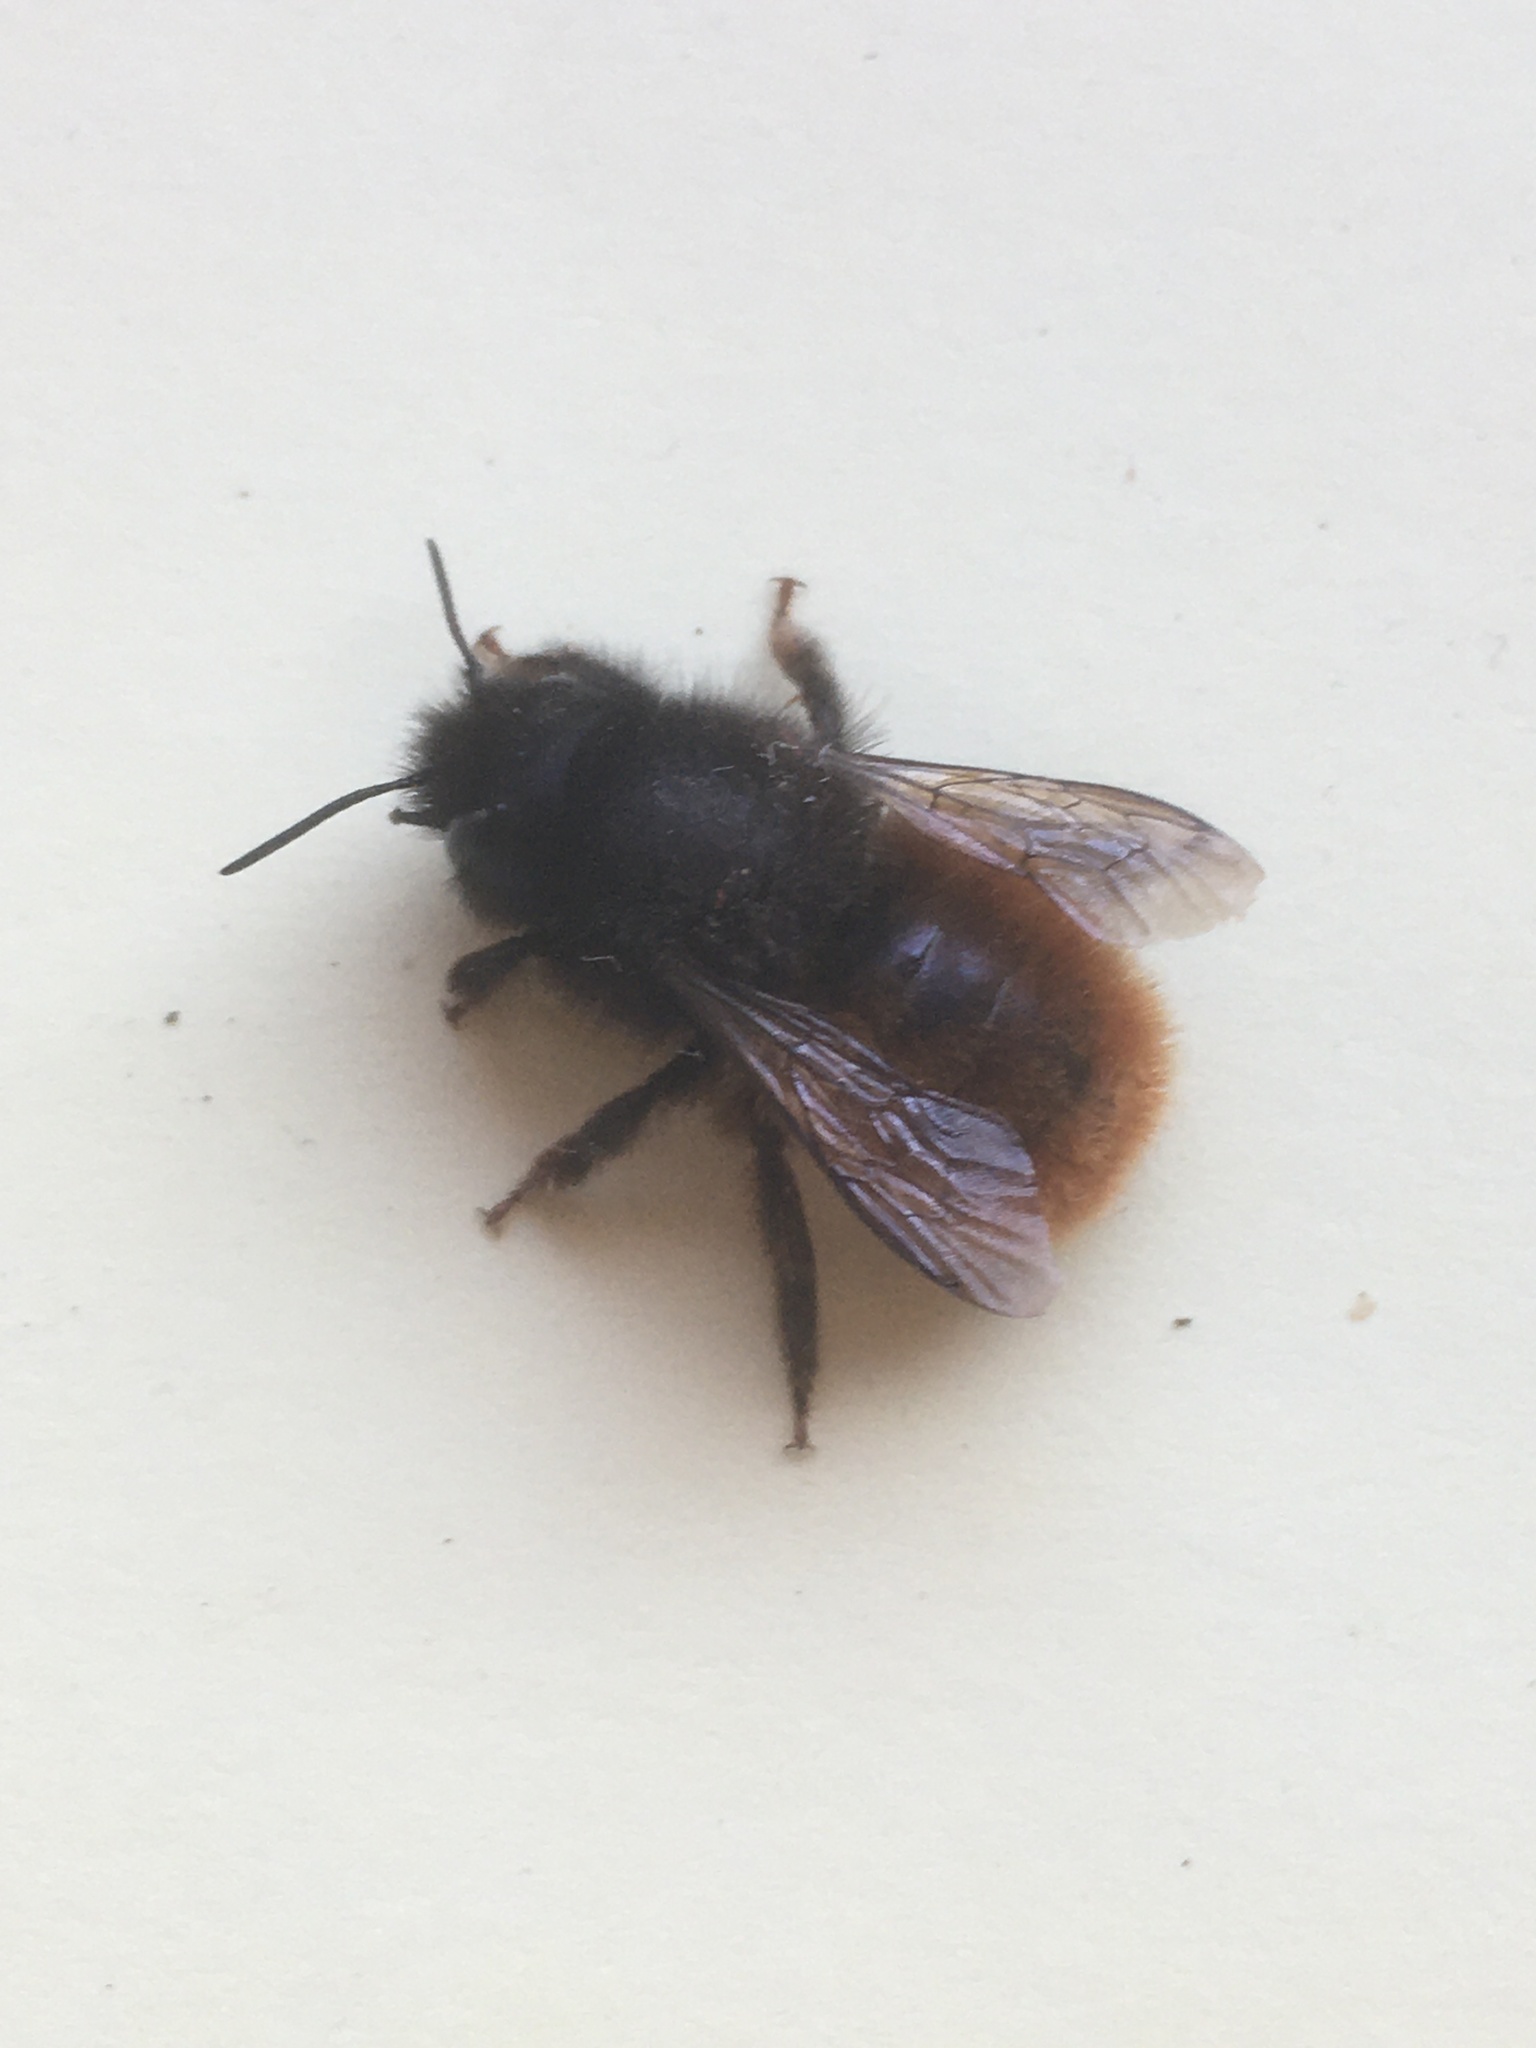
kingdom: Animalia
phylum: Arthropoda
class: Insecta
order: Hymenoptera
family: Megachilidae
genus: Osmia
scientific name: Osmia cornuta
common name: Mason bee
